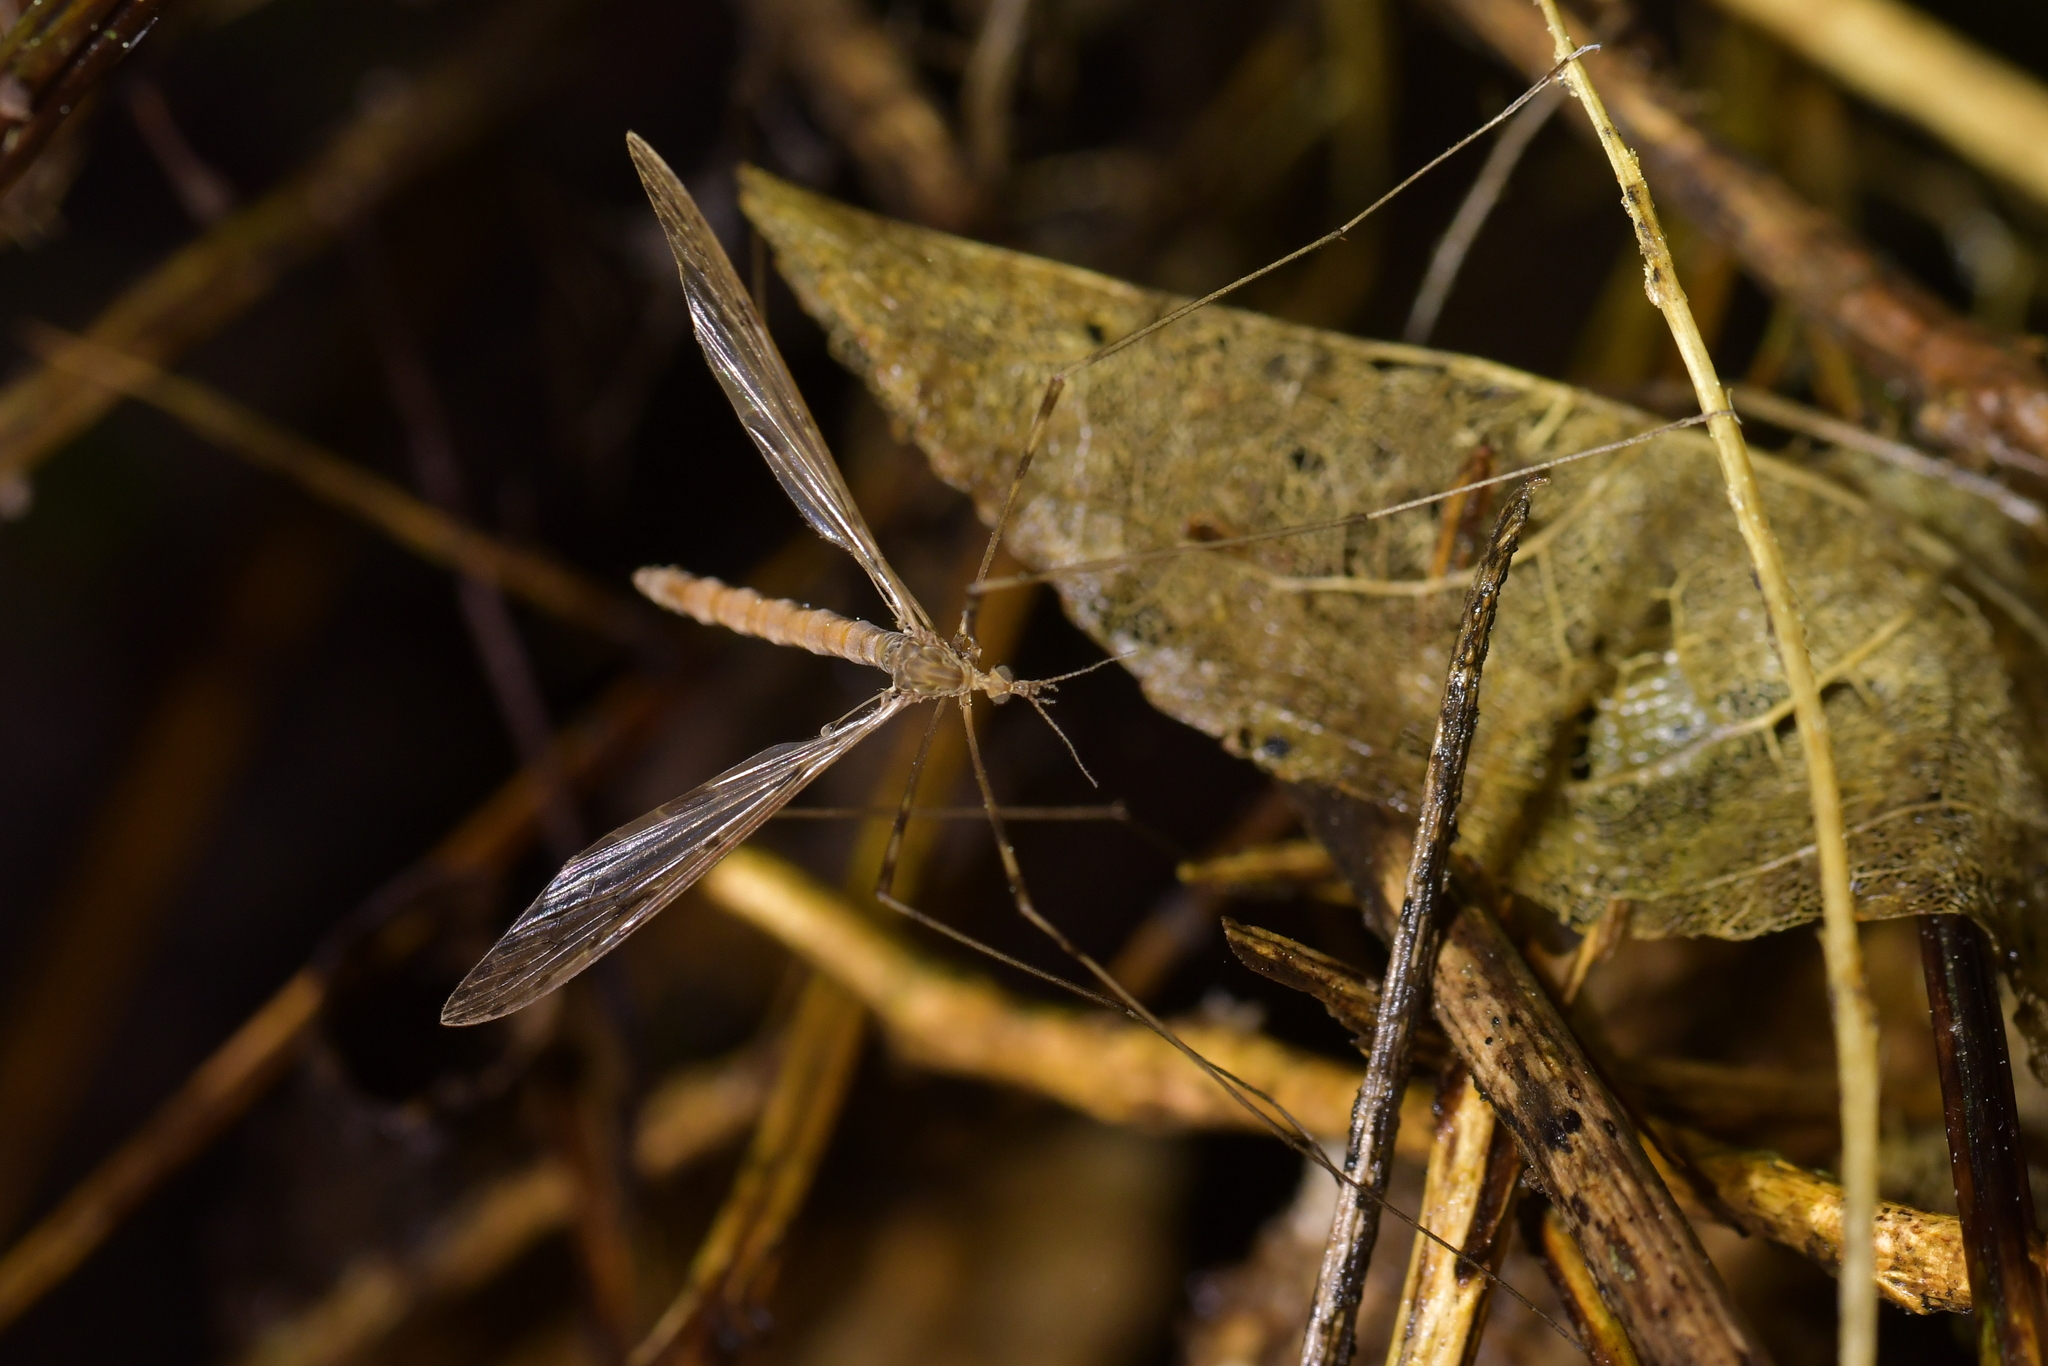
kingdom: Animalia
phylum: Arthropoda
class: Insecta
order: Diptera
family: Limoniidae
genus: Austrolimnophila
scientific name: Austrolimnophila crassipes
